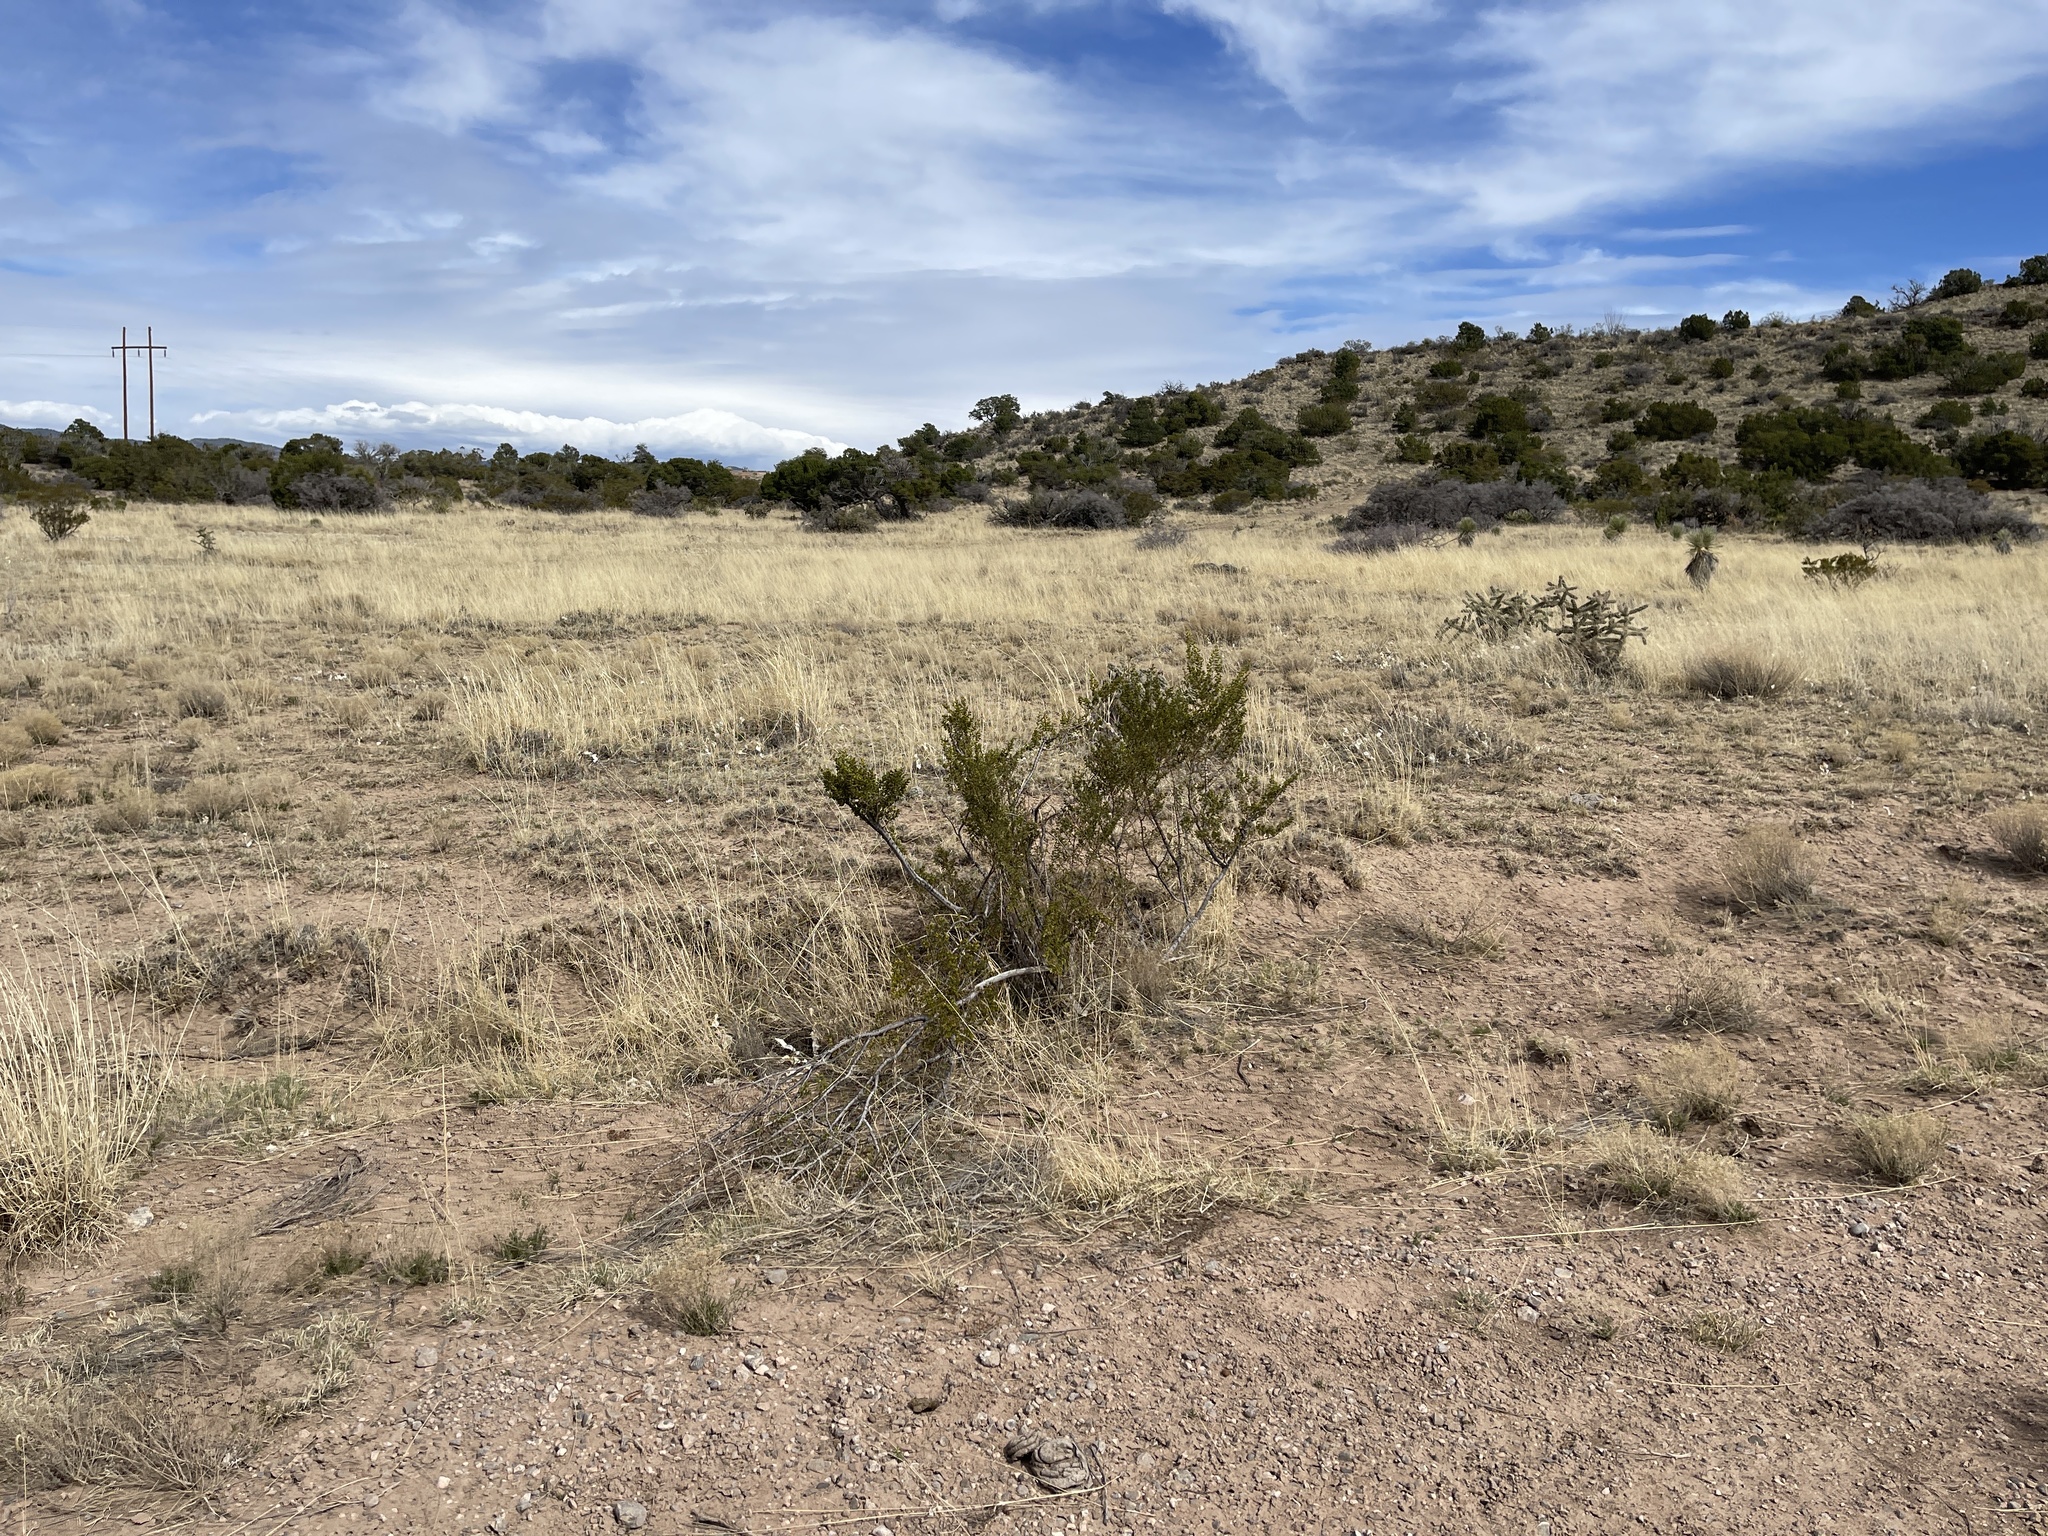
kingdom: Plantae
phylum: Tracheophyta
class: Magnoliopsida
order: Zygophyllales
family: Zygophyllaceae
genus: Larrea
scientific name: Larrea tridentata
